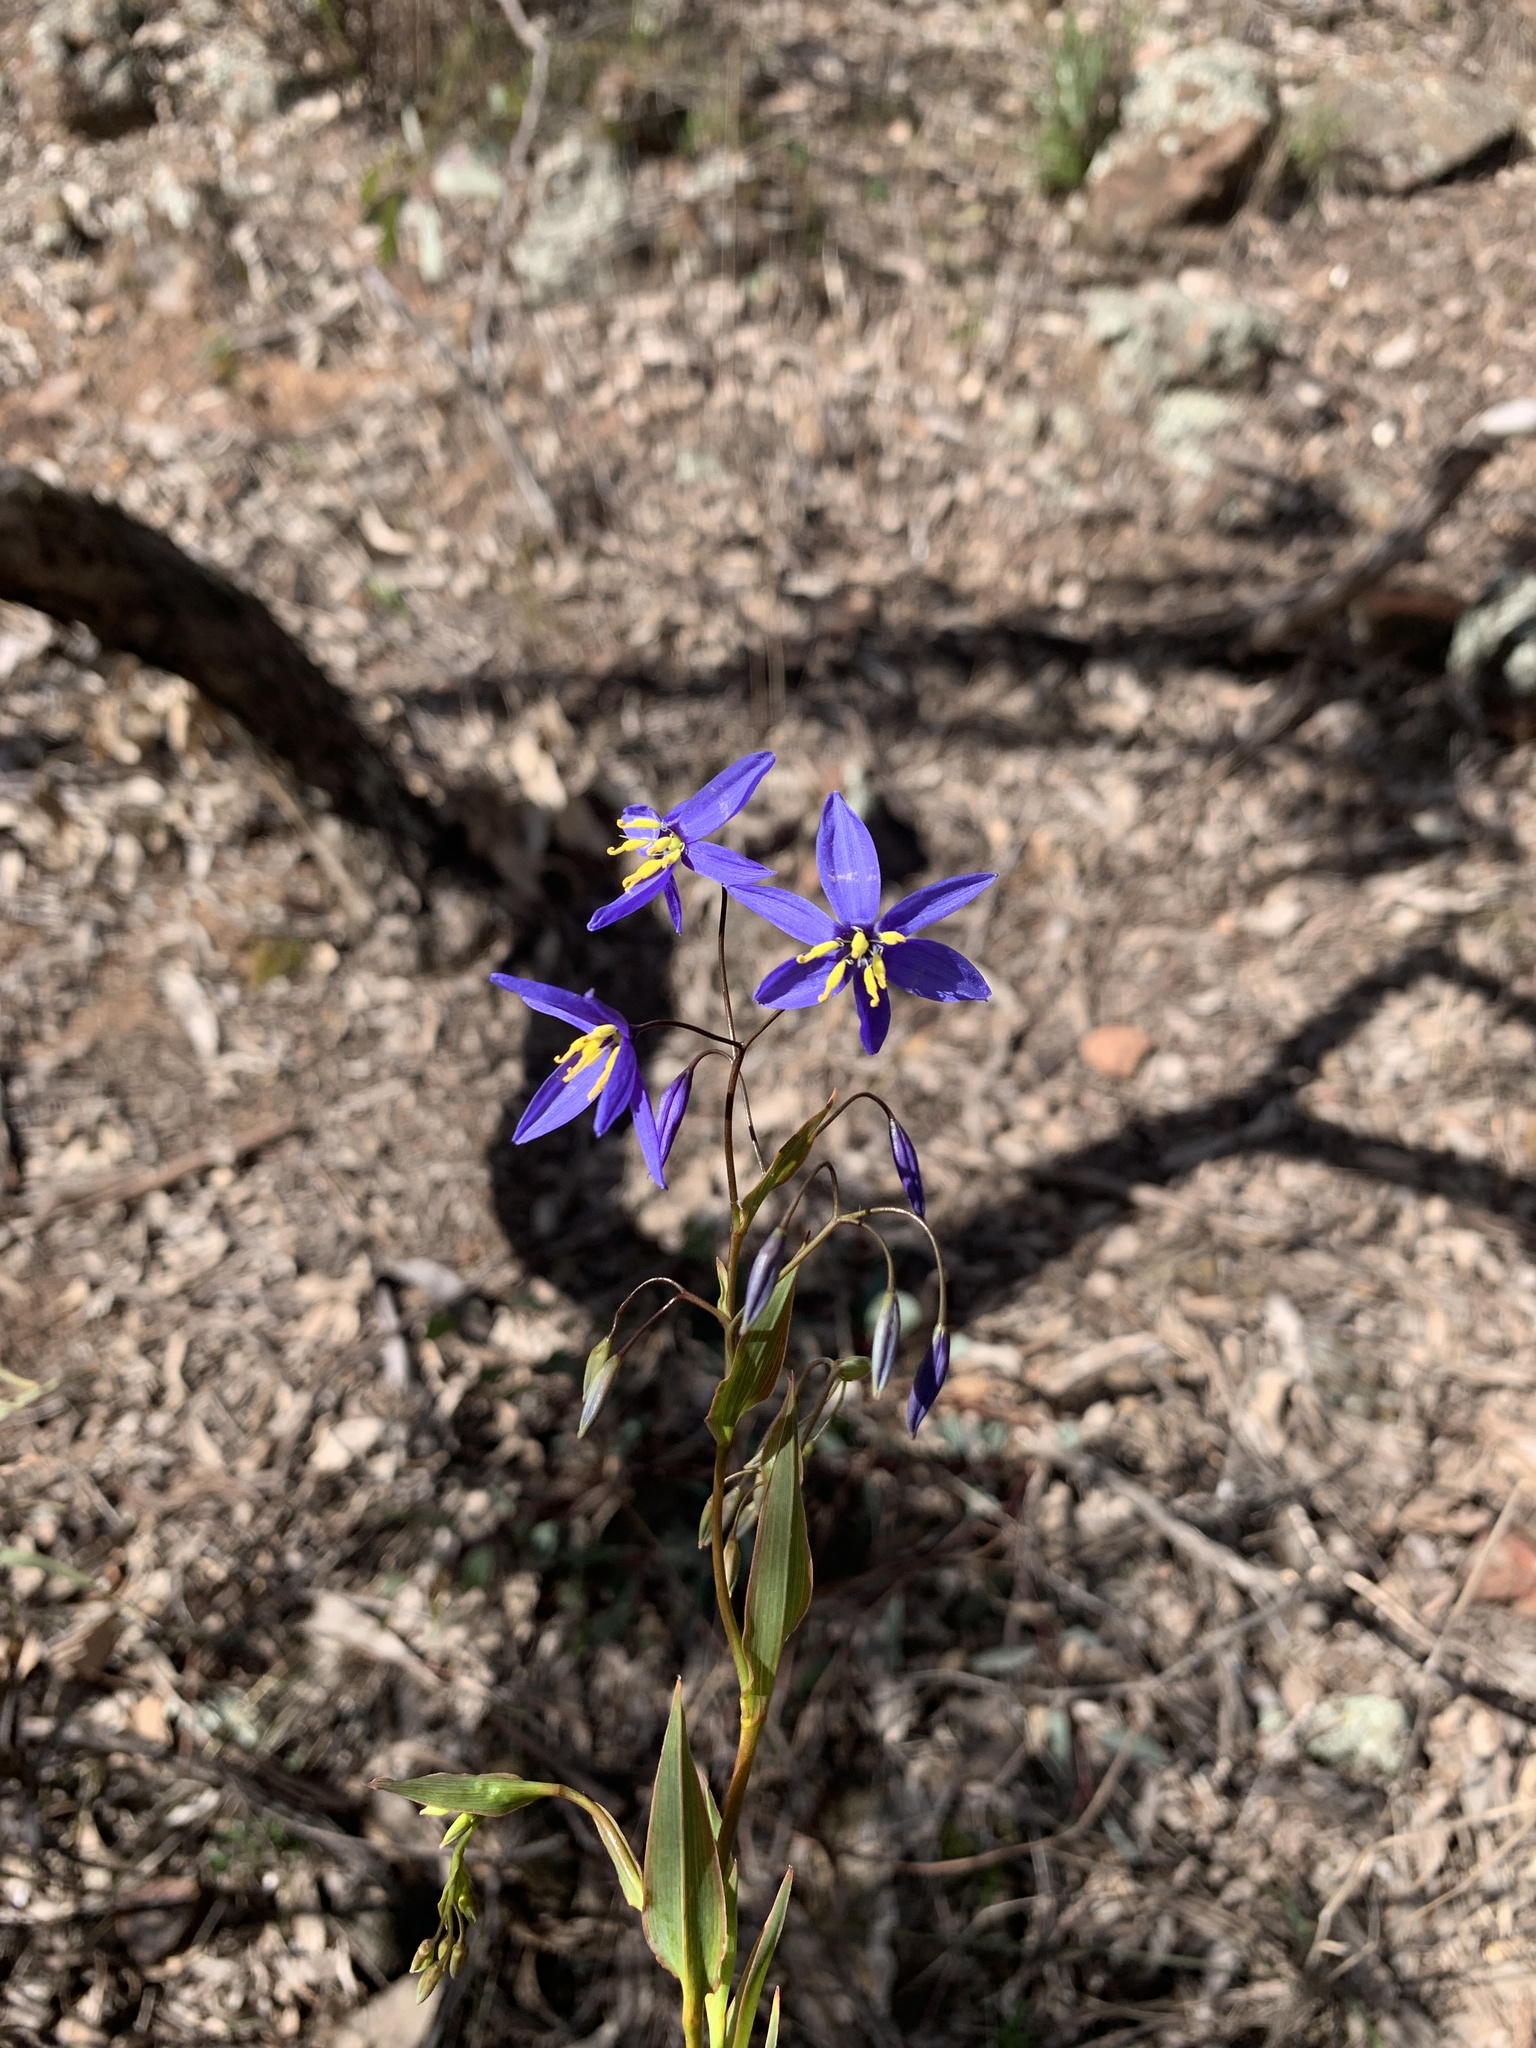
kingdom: Plantae
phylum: Tracheophyta
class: Liliopsida
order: Asparagales
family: Asphodelaceae
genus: Stypandra
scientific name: Stypandra glauca
